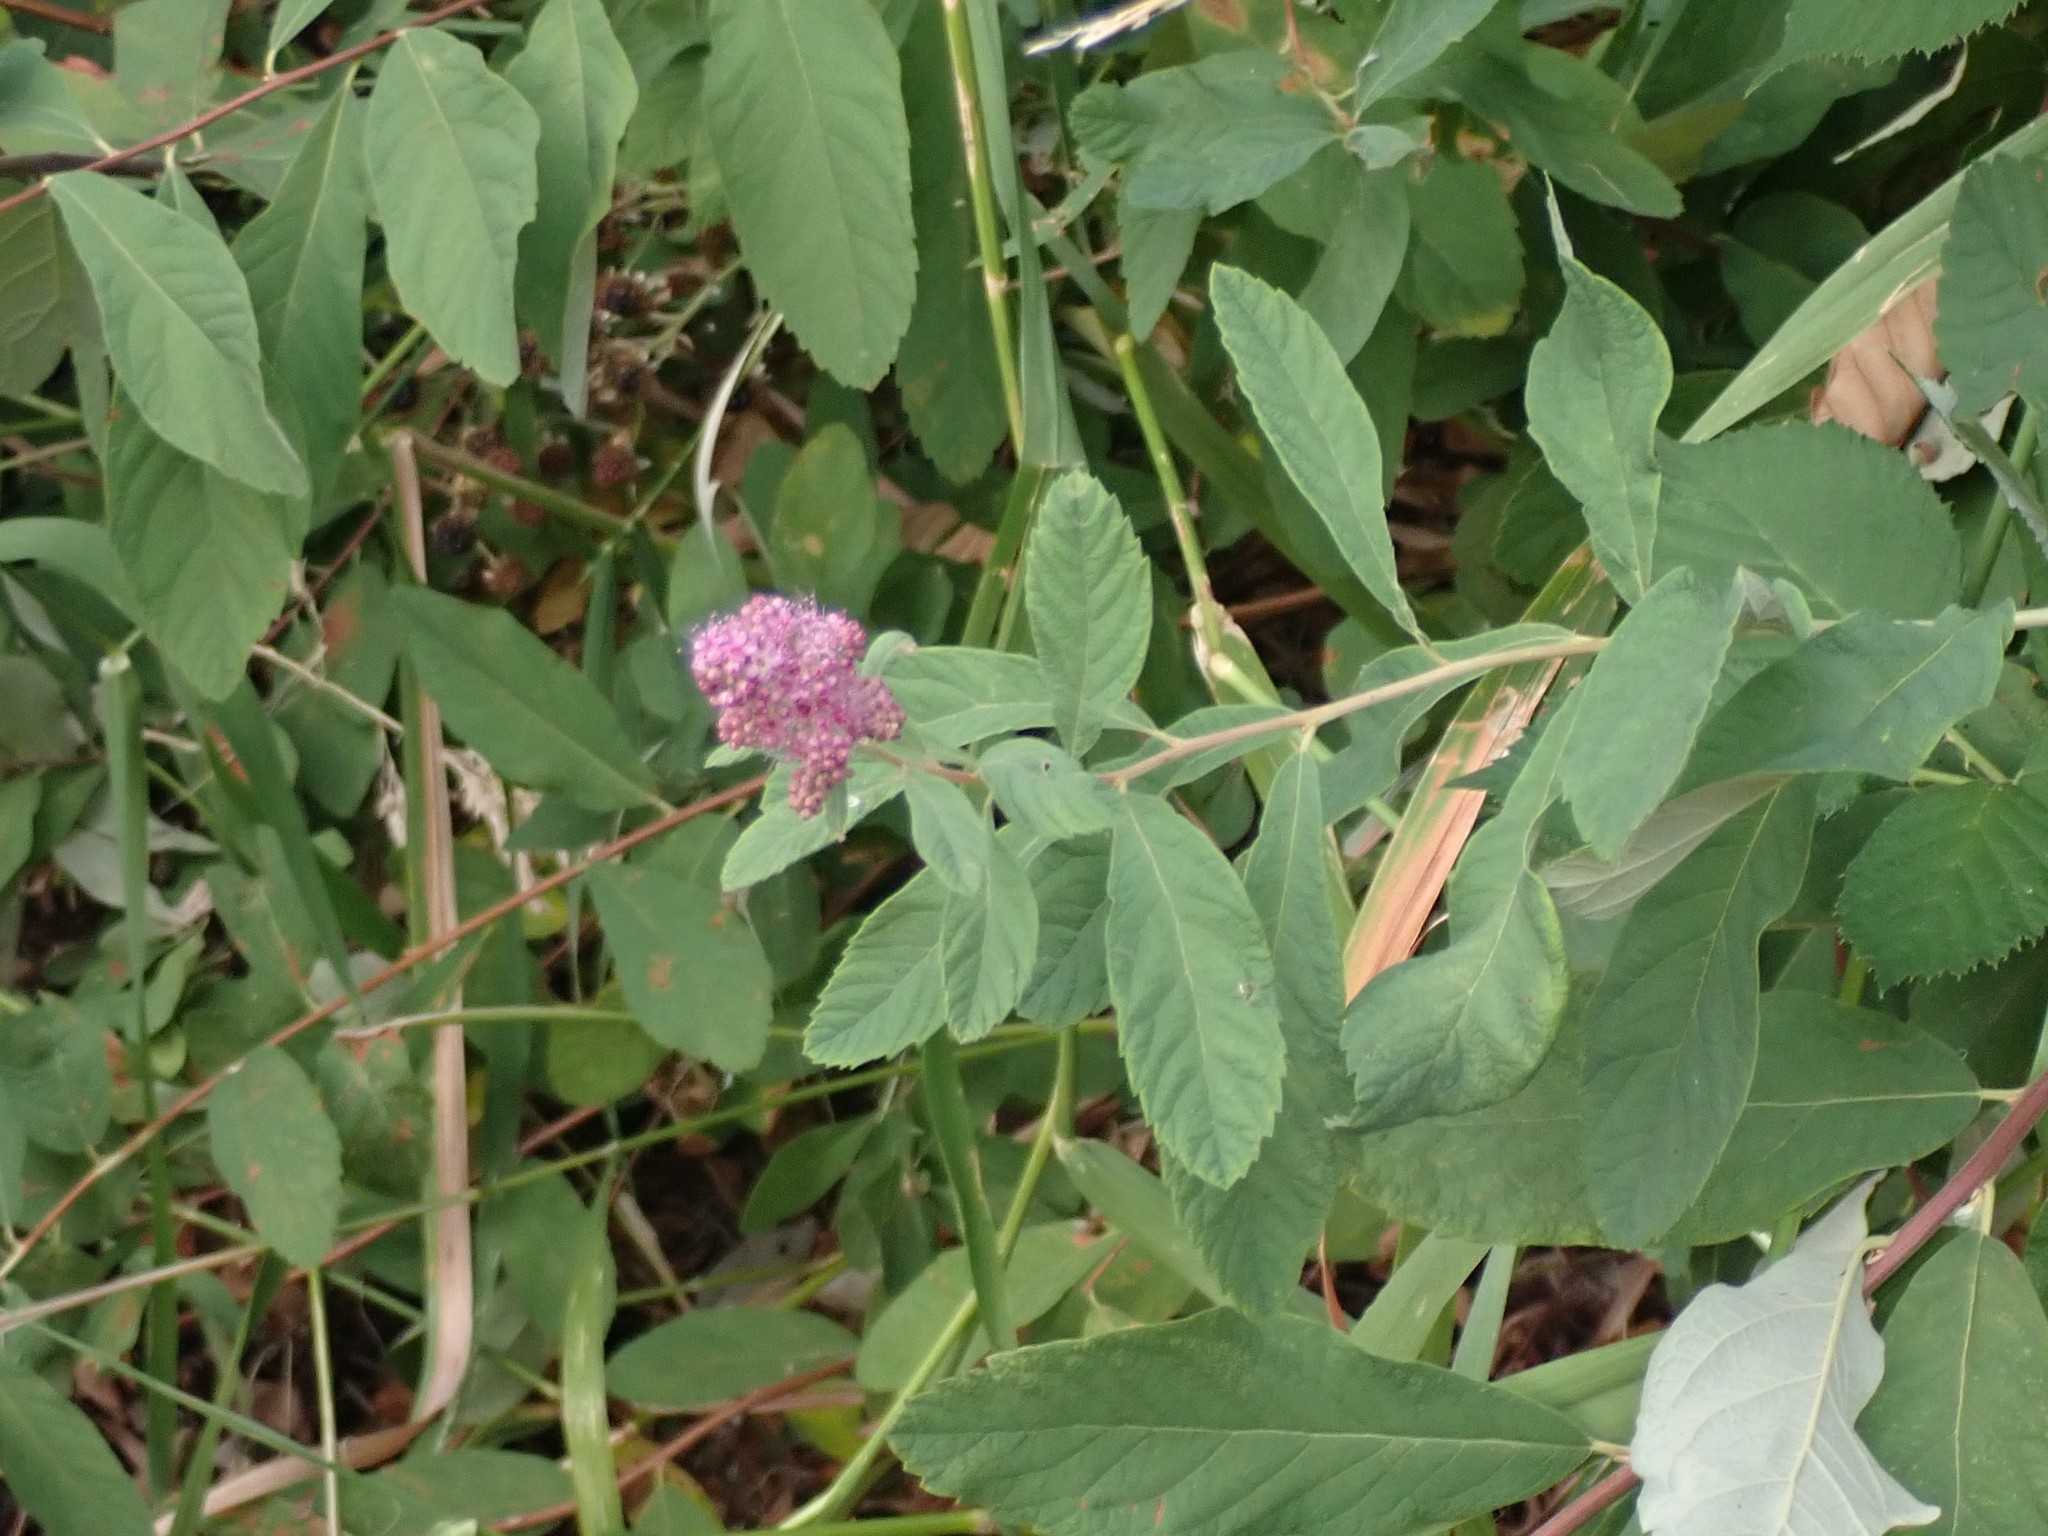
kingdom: Plantae
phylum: Tracheophyta
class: Magnoliopsida
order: Rosales
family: Rosaceae
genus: Spiraea
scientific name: Spiraea douglasii
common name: Steeplebush
